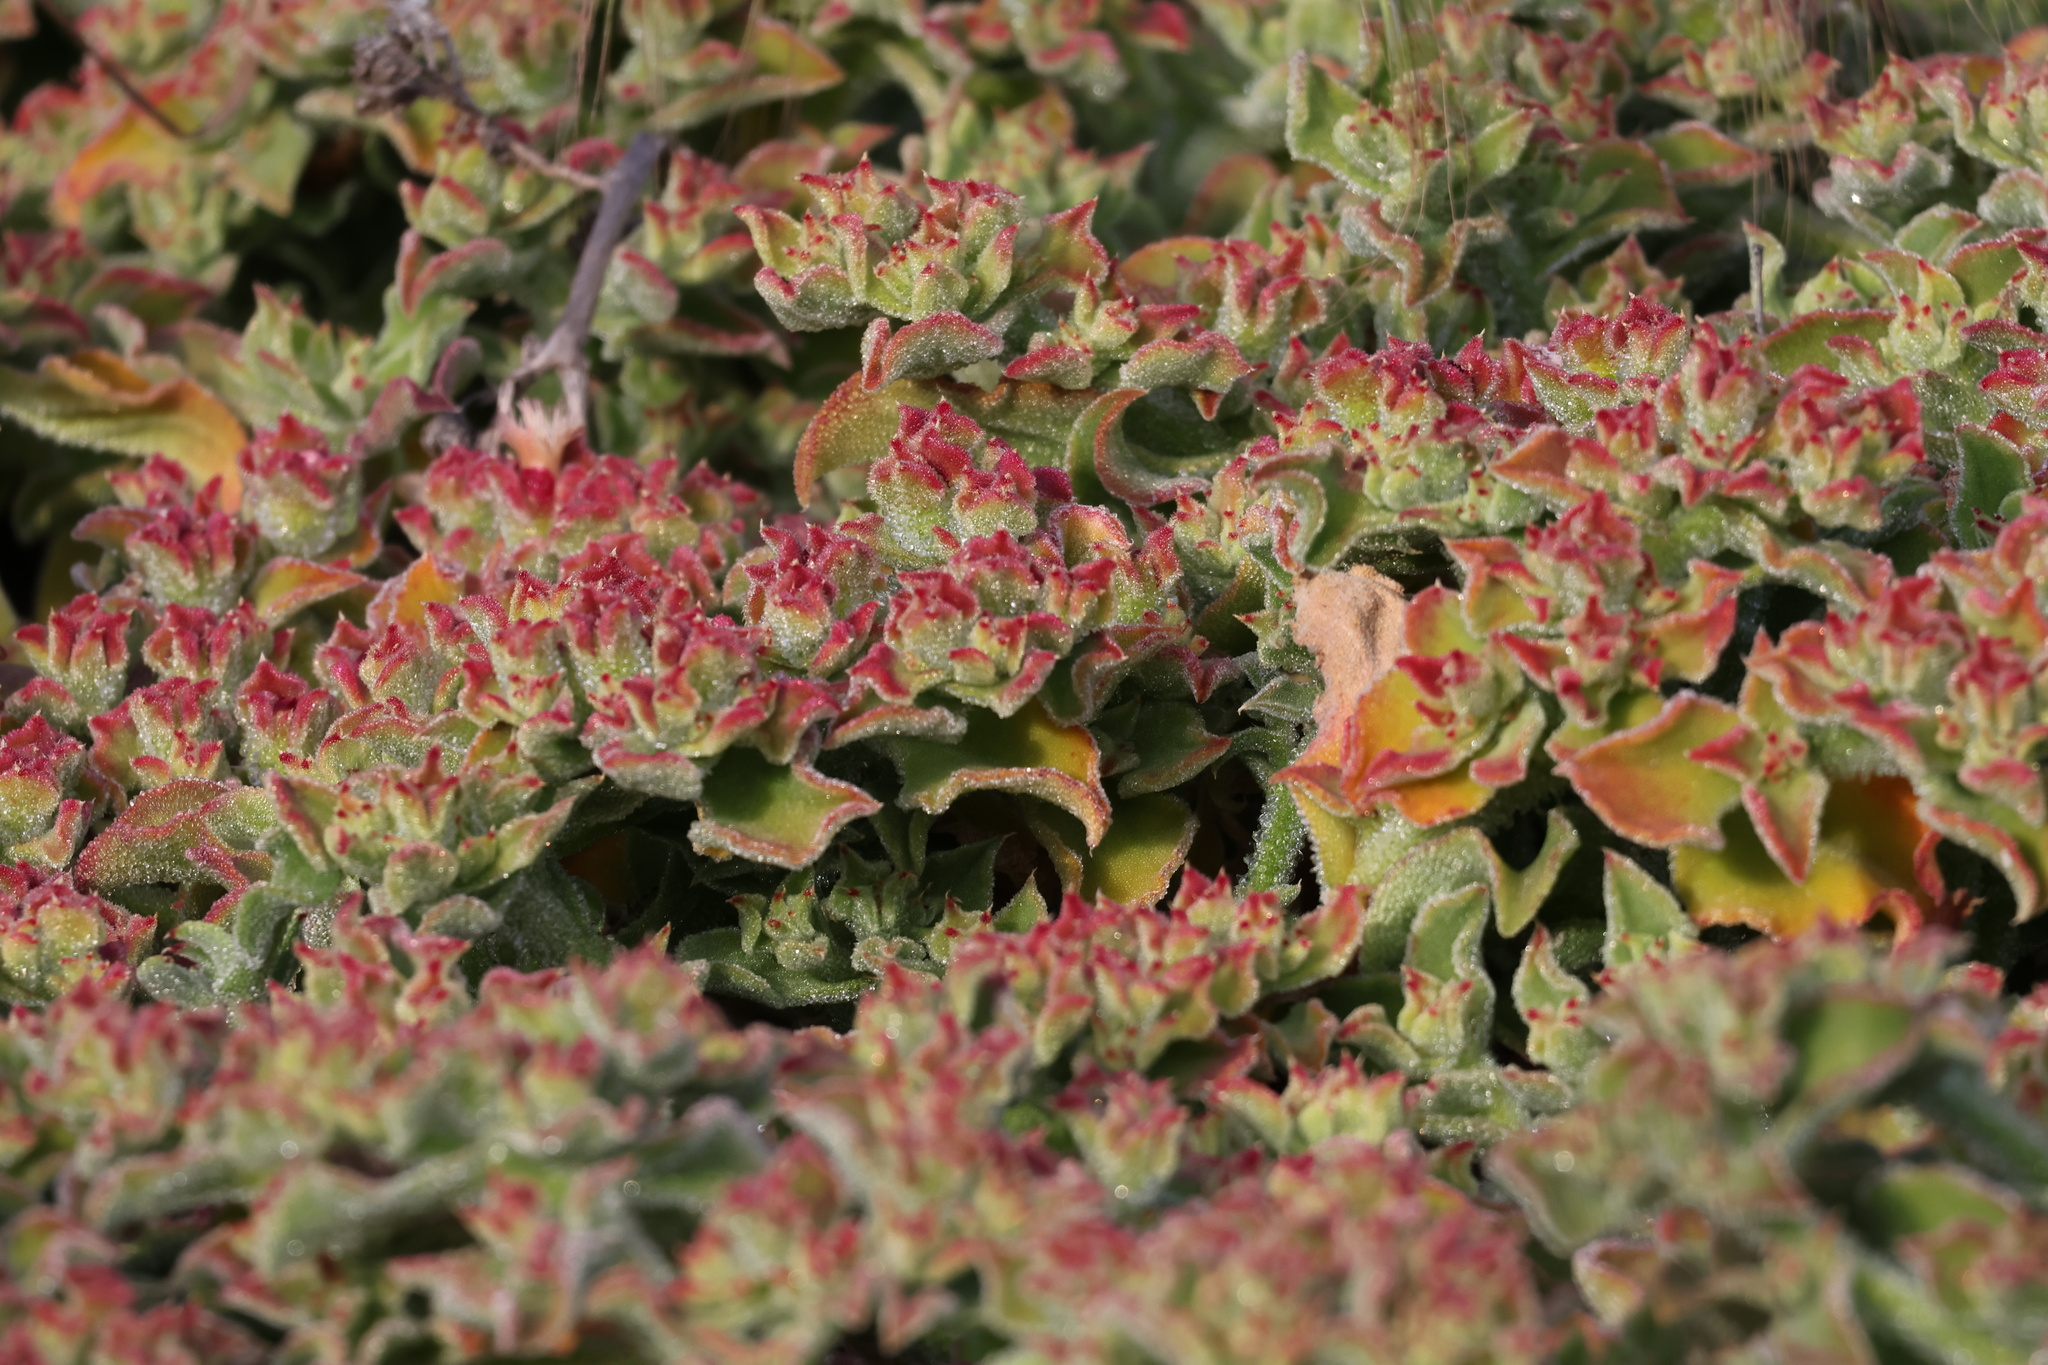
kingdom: Plantae
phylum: Tracheophyta
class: Magnoliopsida
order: Caryophyllales
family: Aizoaceae
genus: Mesembryanthemum
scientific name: Mesembryanthemum crystallinum
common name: Common iceplant
